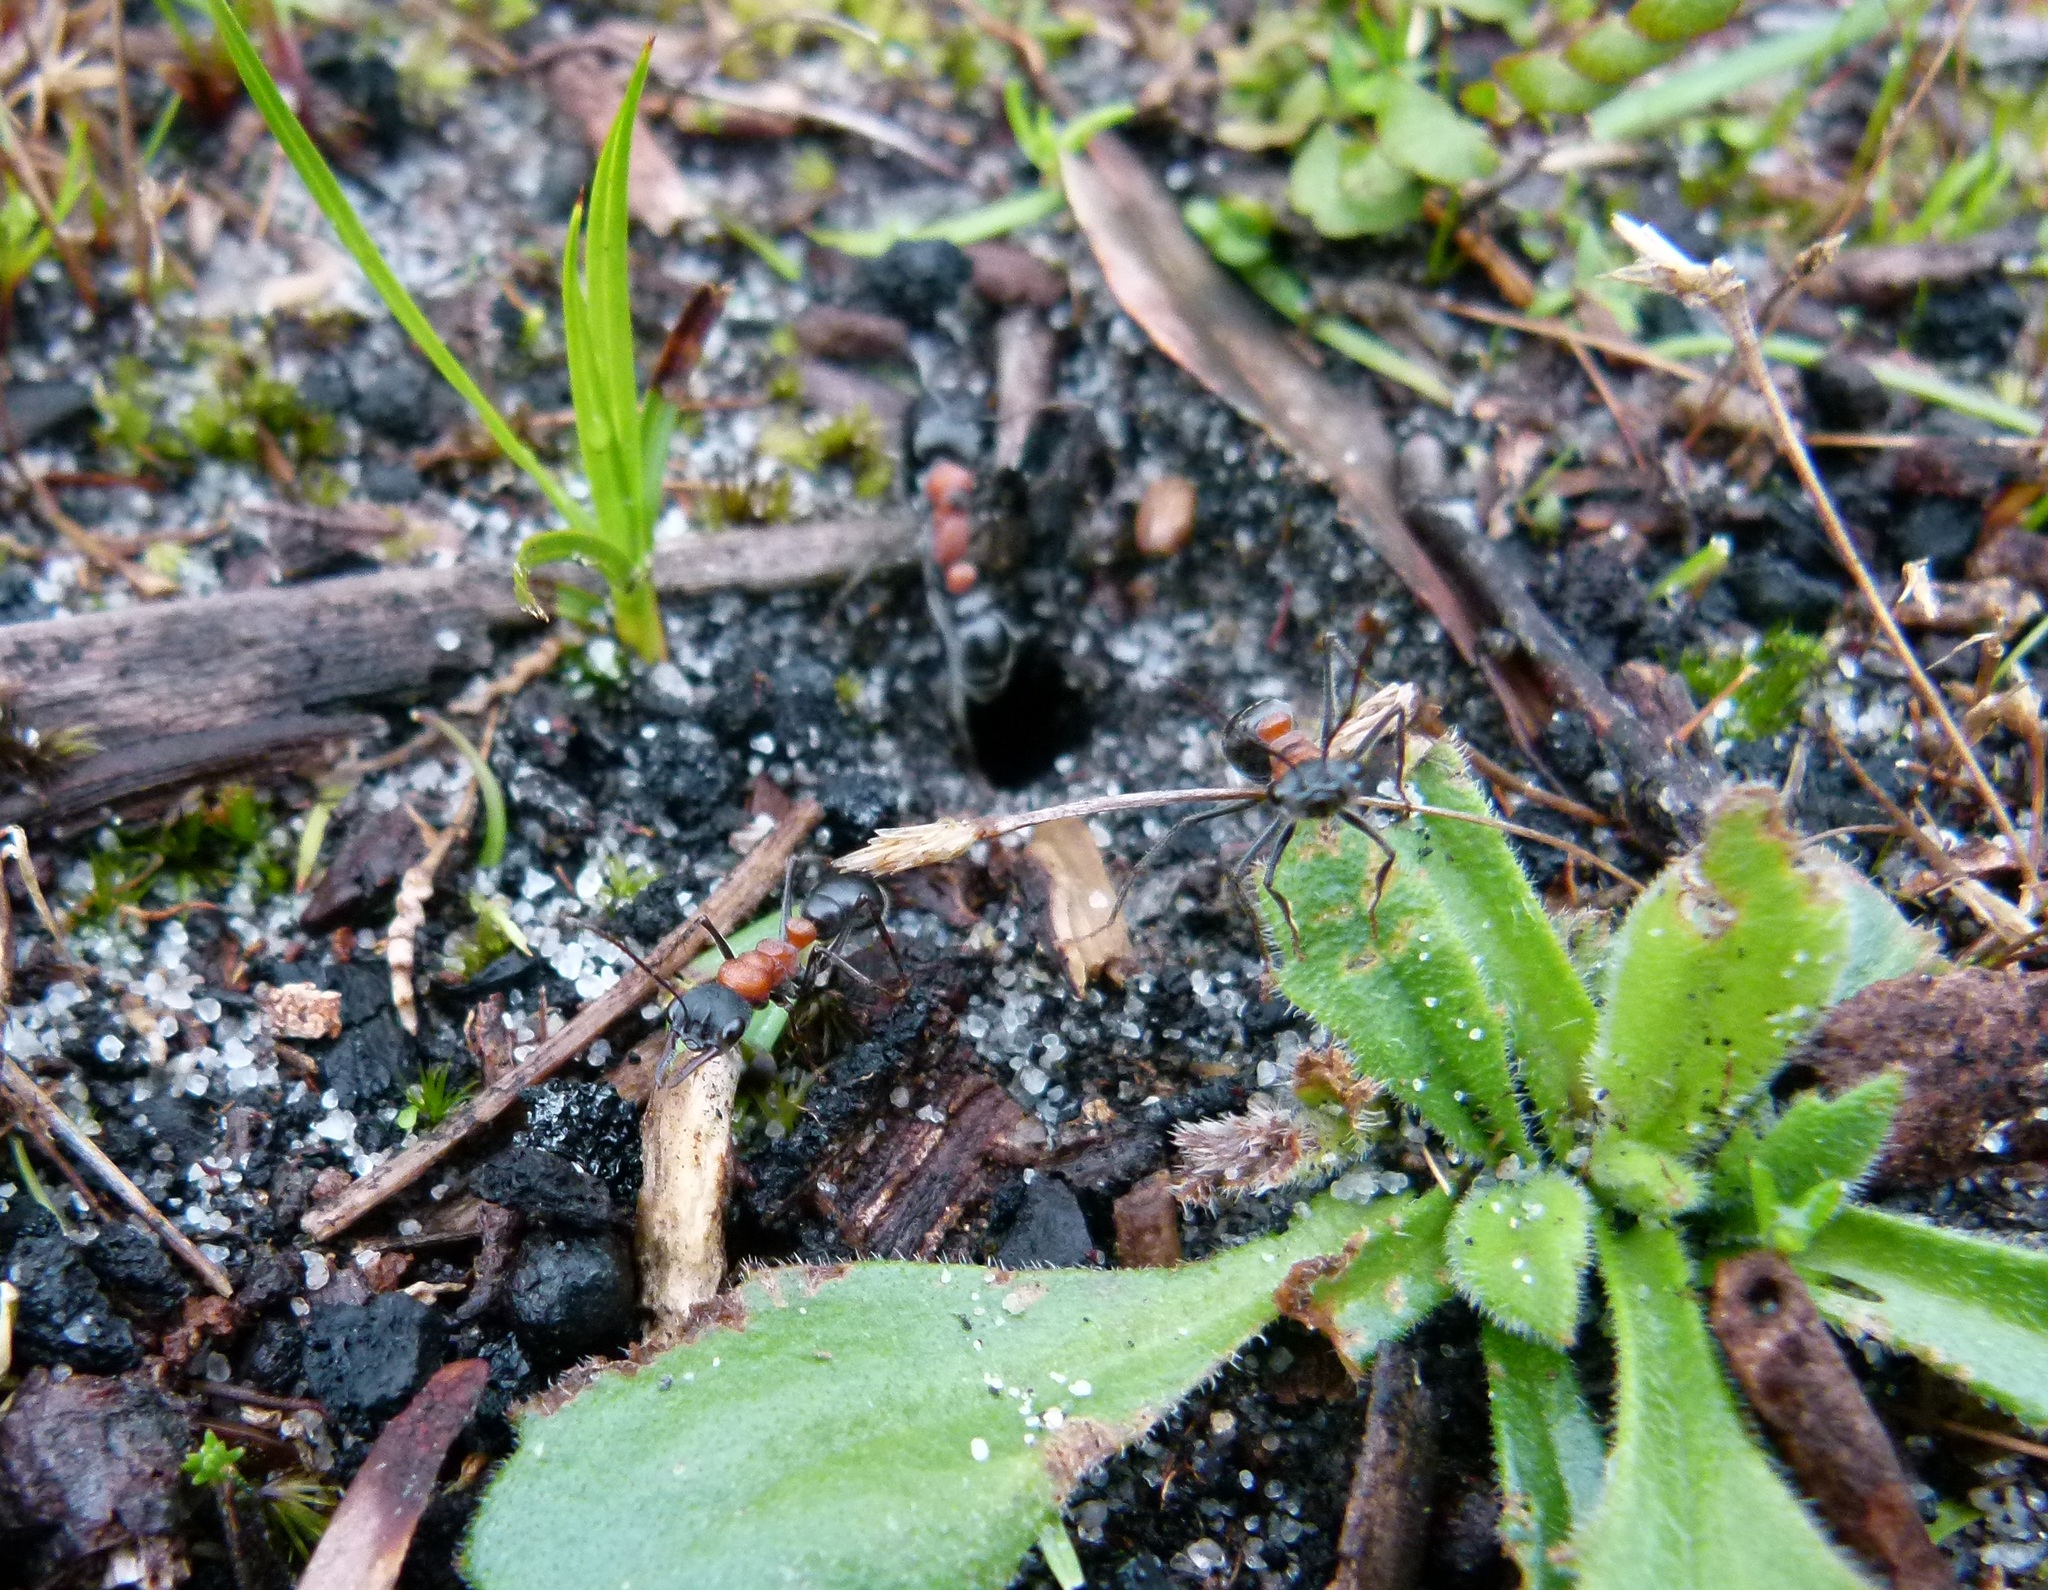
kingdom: Animalia
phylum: Arthropoda
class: Insecta
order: Hymenoptera
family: Formicidae
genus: Myrmecia
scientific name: Myrmecia ludlowi
